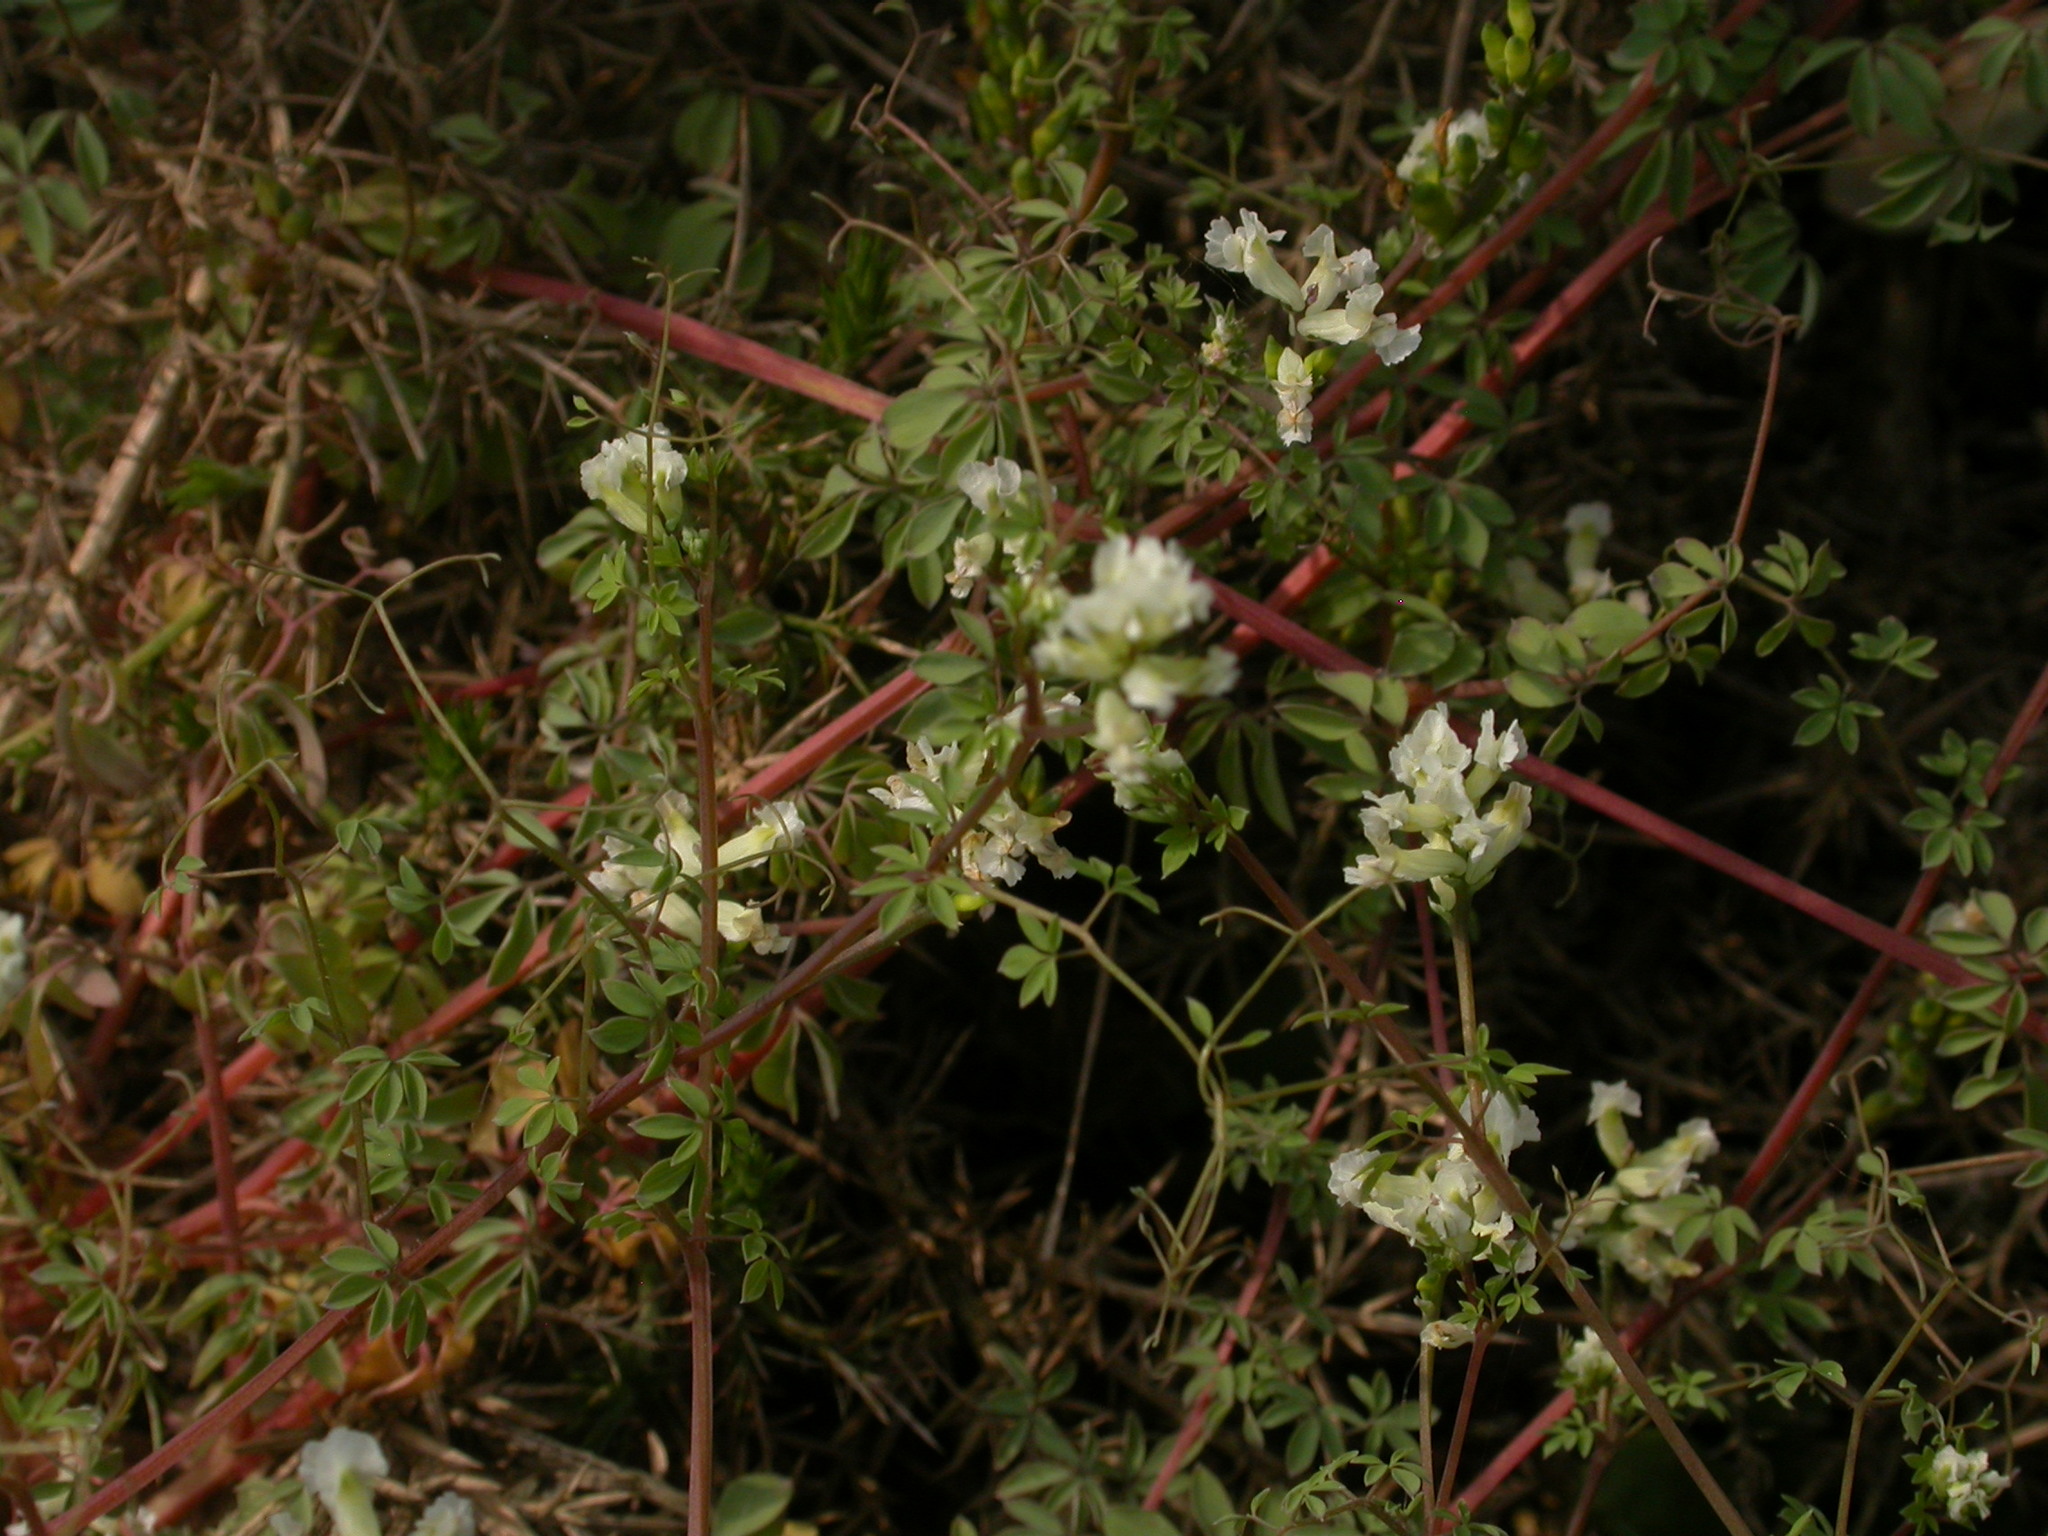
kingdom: Plantae
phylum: Tracheophyta
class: Magnoliopsida
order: Ranunculales
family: Papaveraceae
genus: Ceratocapnos
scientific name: Ceratocapnos claviculata
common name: Climbing corydalis
